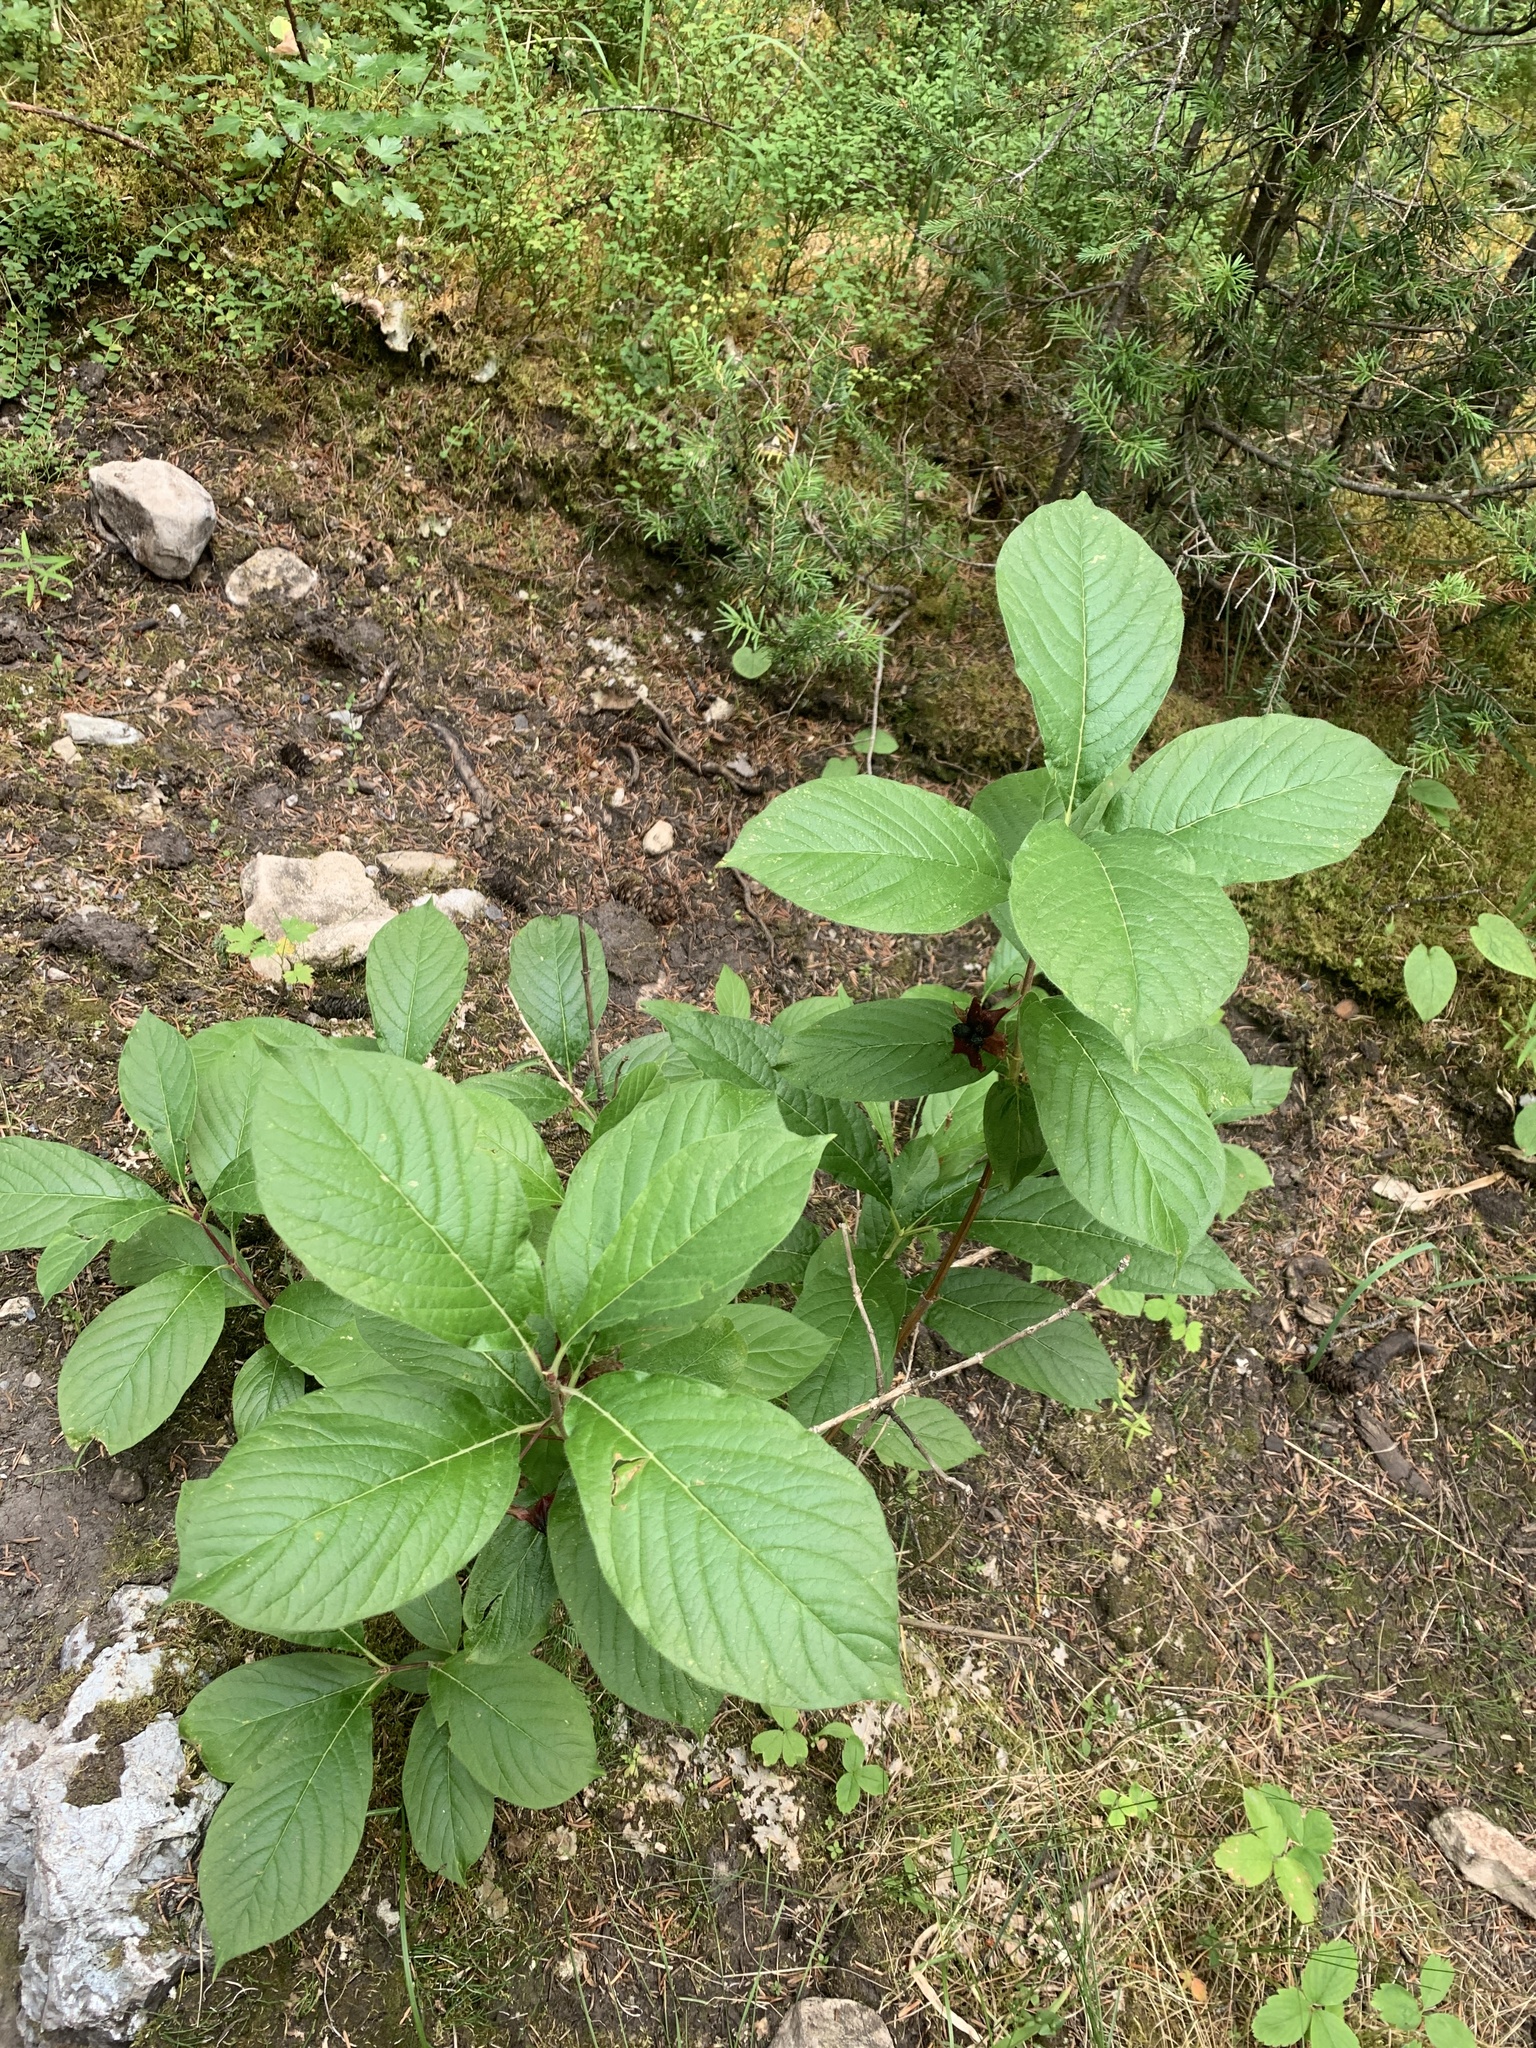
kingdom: Plantae
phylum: Tracheophyta
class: Magnoliopsida
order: Dipsacales
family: Caprifoliaceae
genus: Lonicera
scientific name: Lonicera involucrata
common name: Californian honeysuckle
